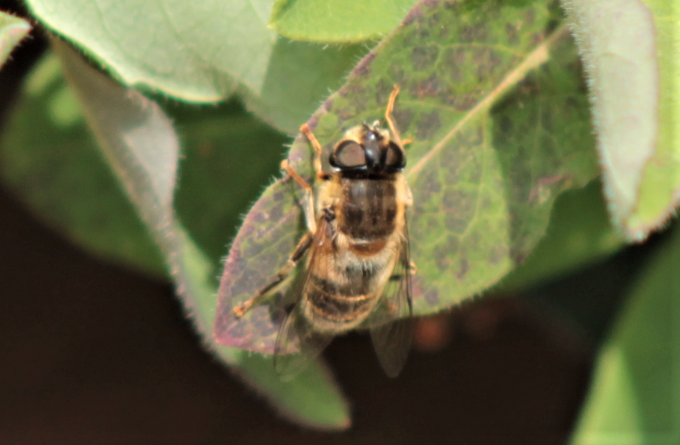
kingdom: Animalia
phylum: Arthropoda
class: Insecta
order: Diptera
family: Syrphidae
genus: Eristalis
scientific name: Eristalis pertinax
